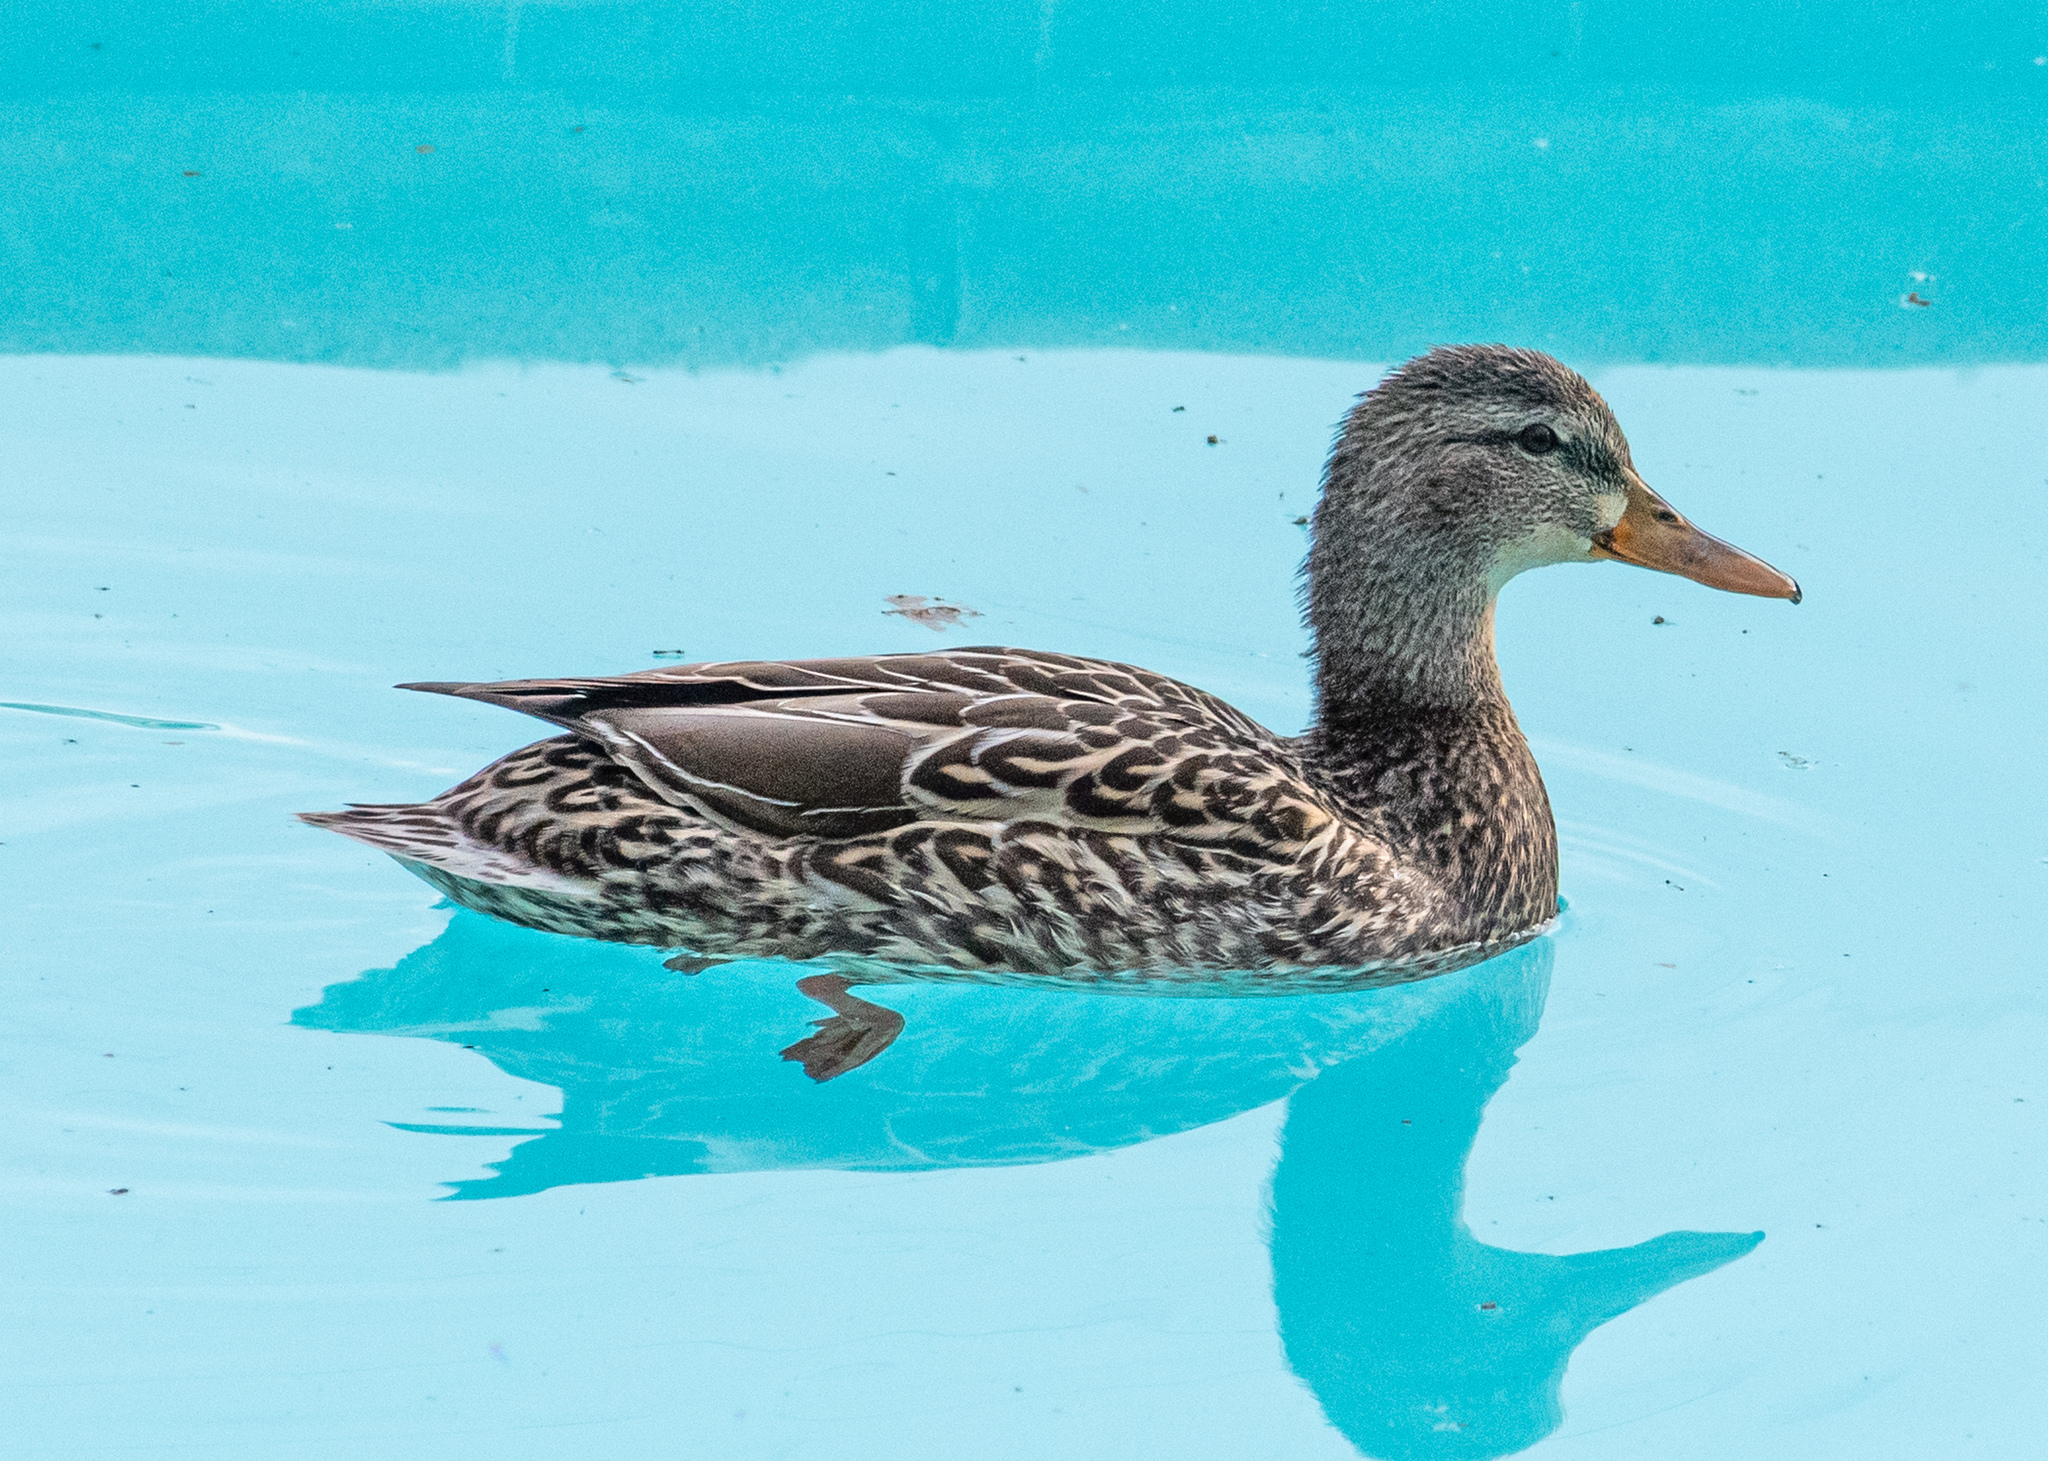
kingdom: Animalia
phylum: Chordata
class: Aves
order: Anseriformes
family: Anatidae
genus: Anas
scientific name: Anas platyrhynchos
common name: Mallard
